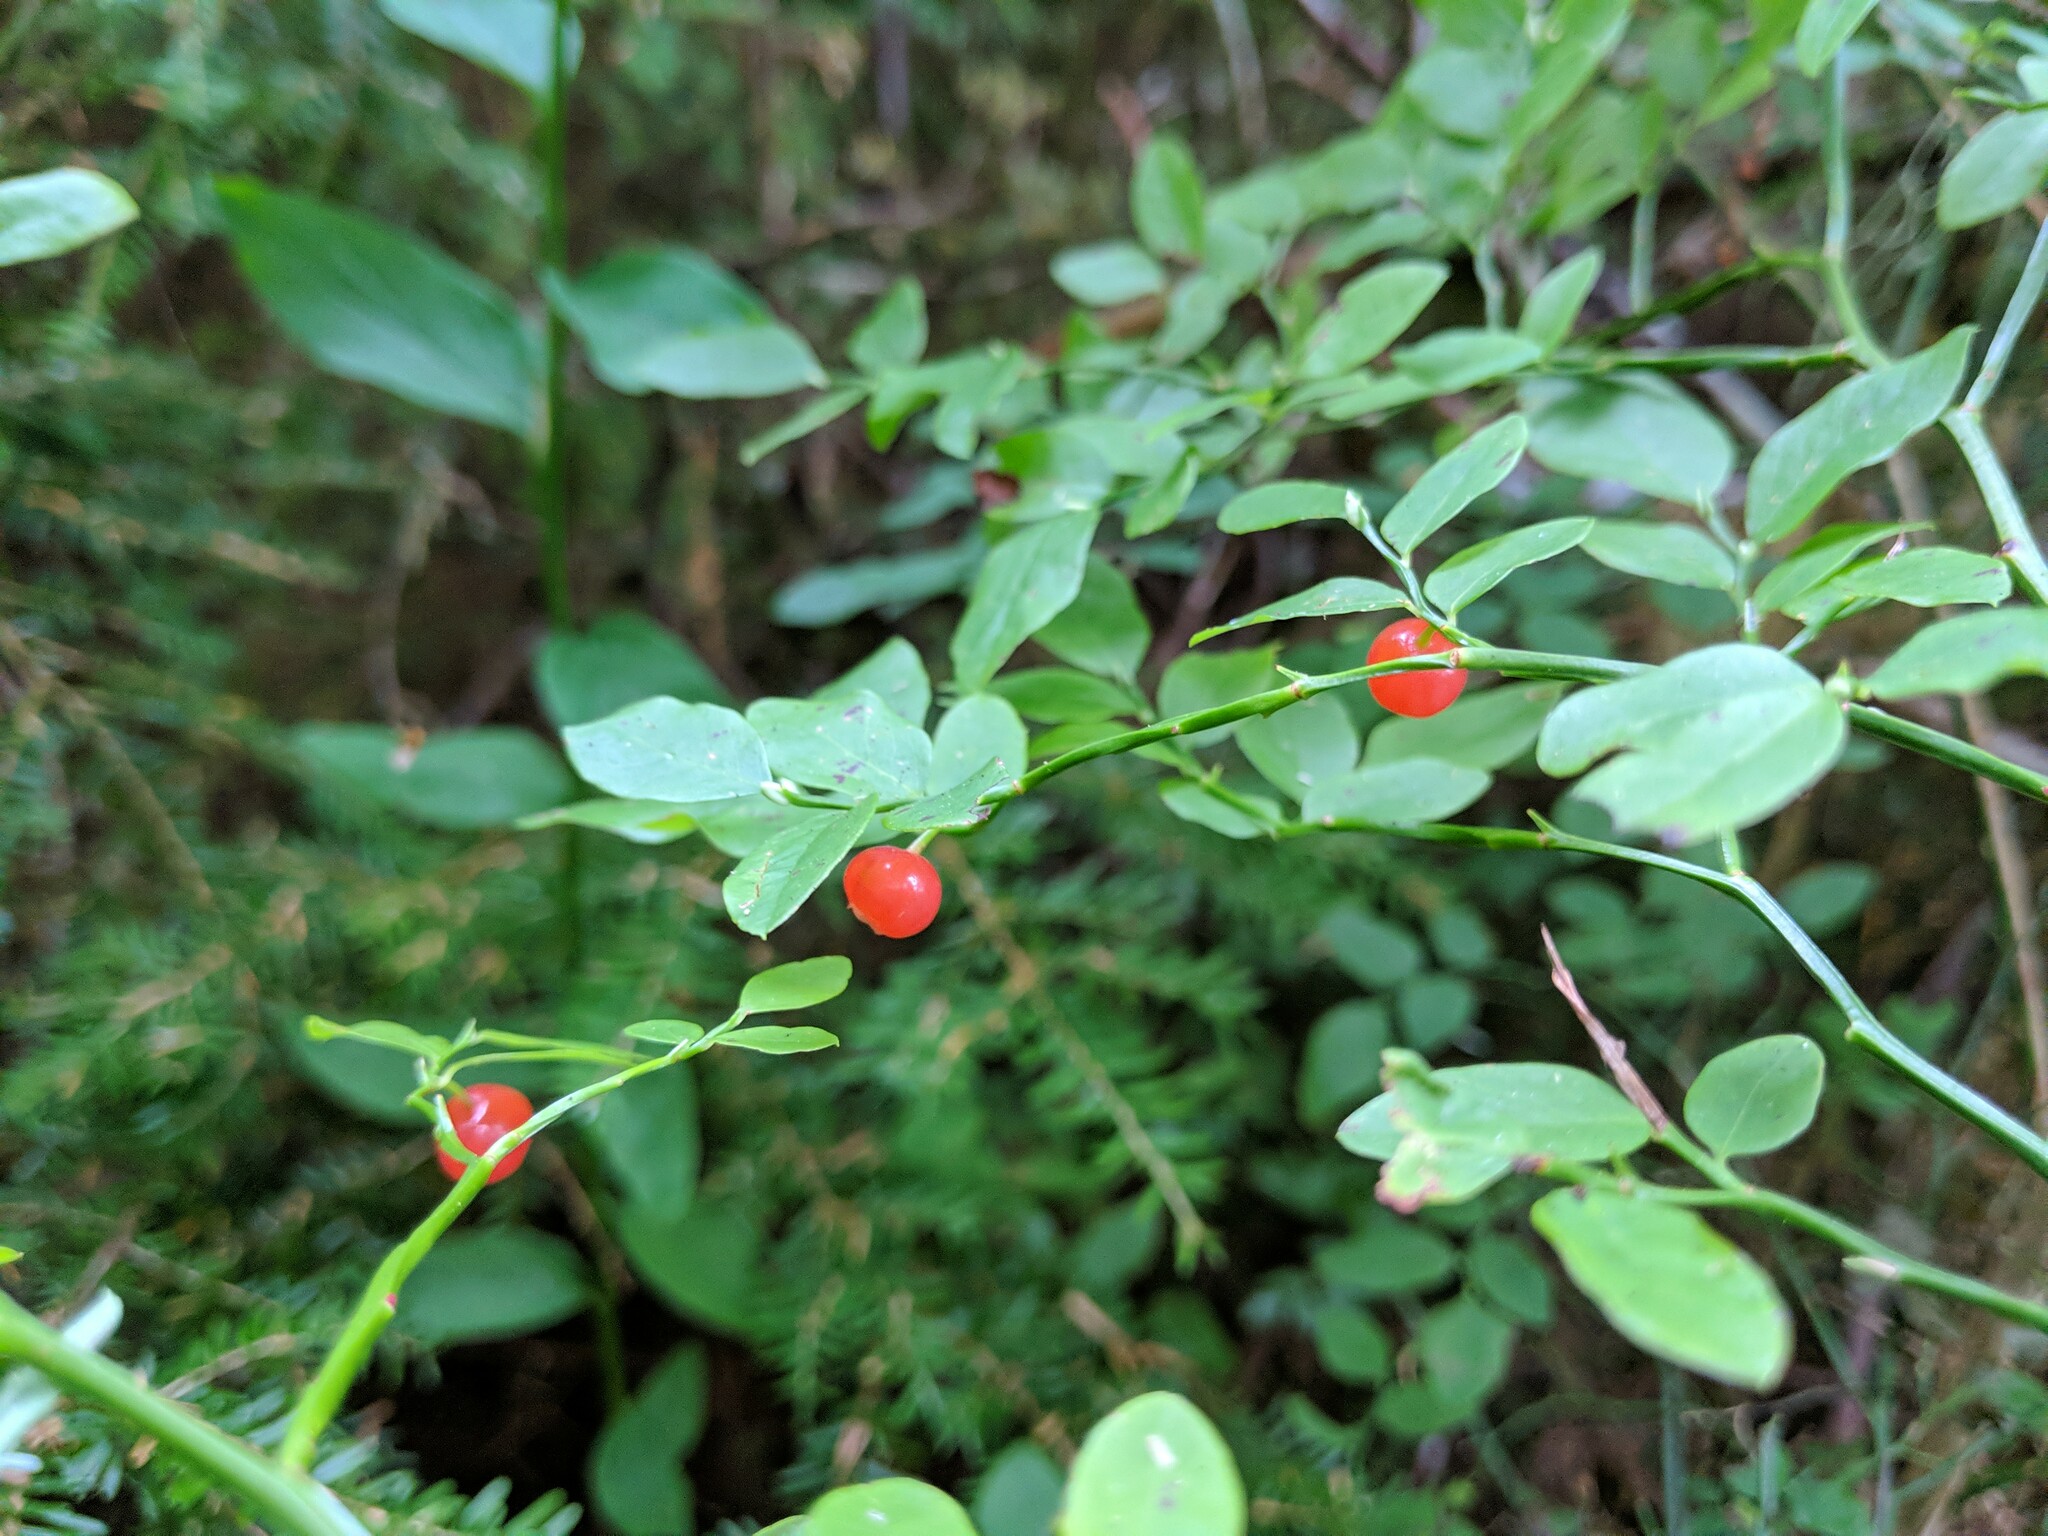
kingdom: Plantae
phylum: Tracheophyta
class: Magnoliopsida
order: Ericales
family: Ericaceae
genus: Vaccinium
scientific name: Vaccinium parvifolium
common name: Red-huckleberry
